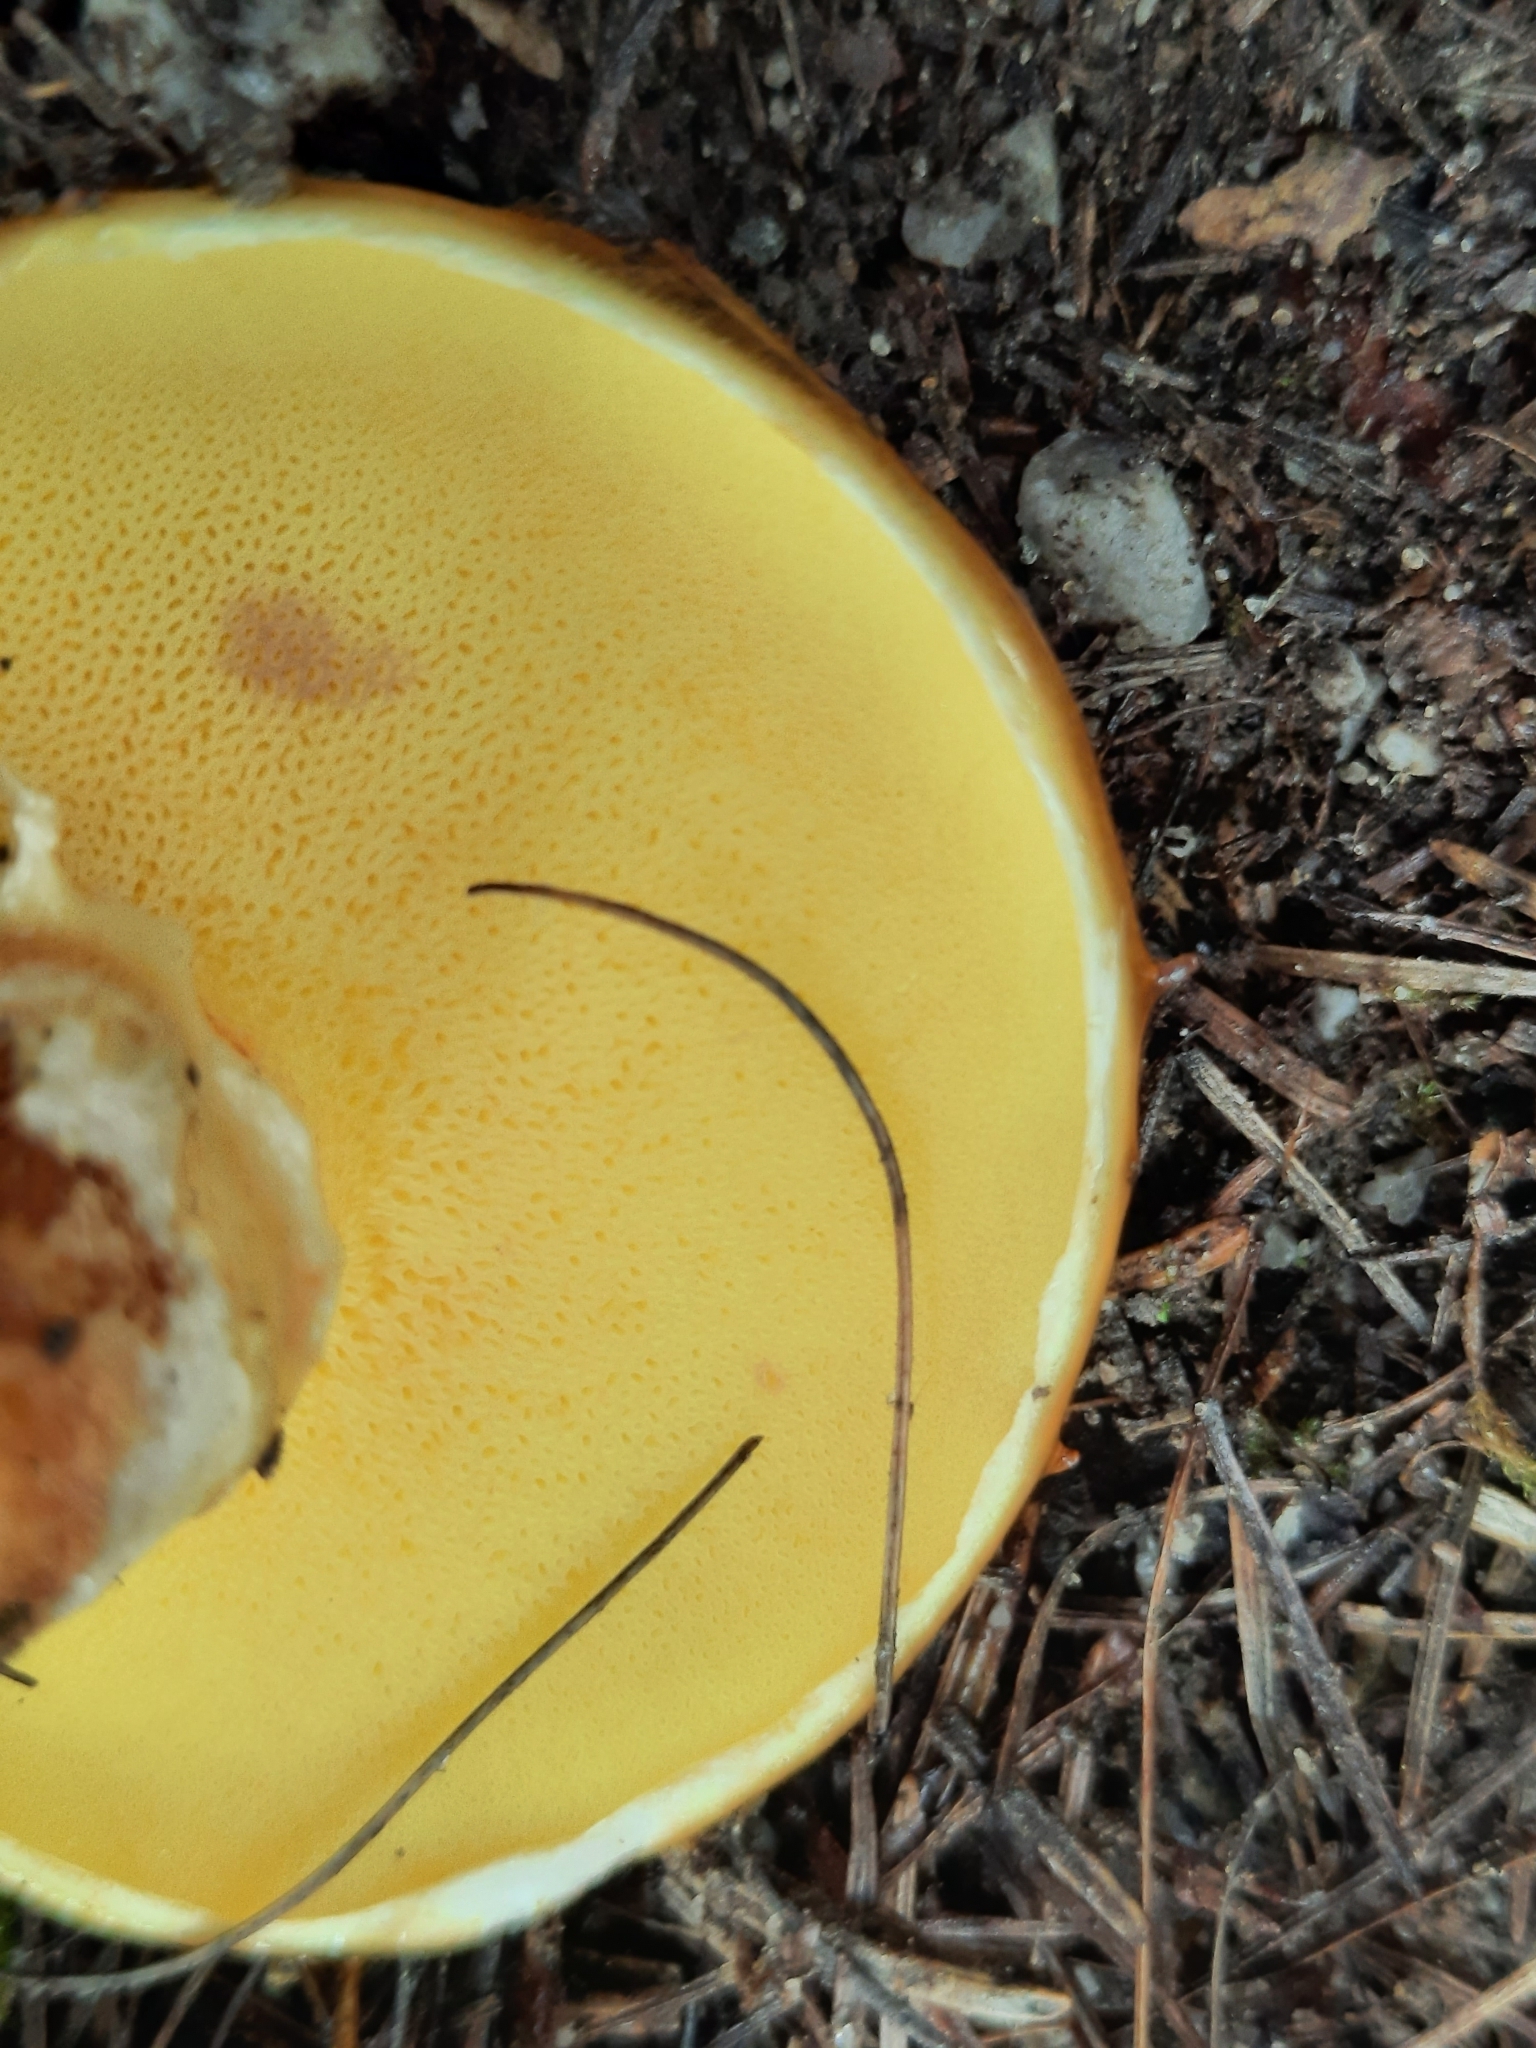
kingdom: Fungi
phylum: Basidiomycota
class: Agaricomycetes
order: Boletales
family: Suillaceae
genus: Suillus
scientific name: Suillus grevillei
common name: Larch bolete
